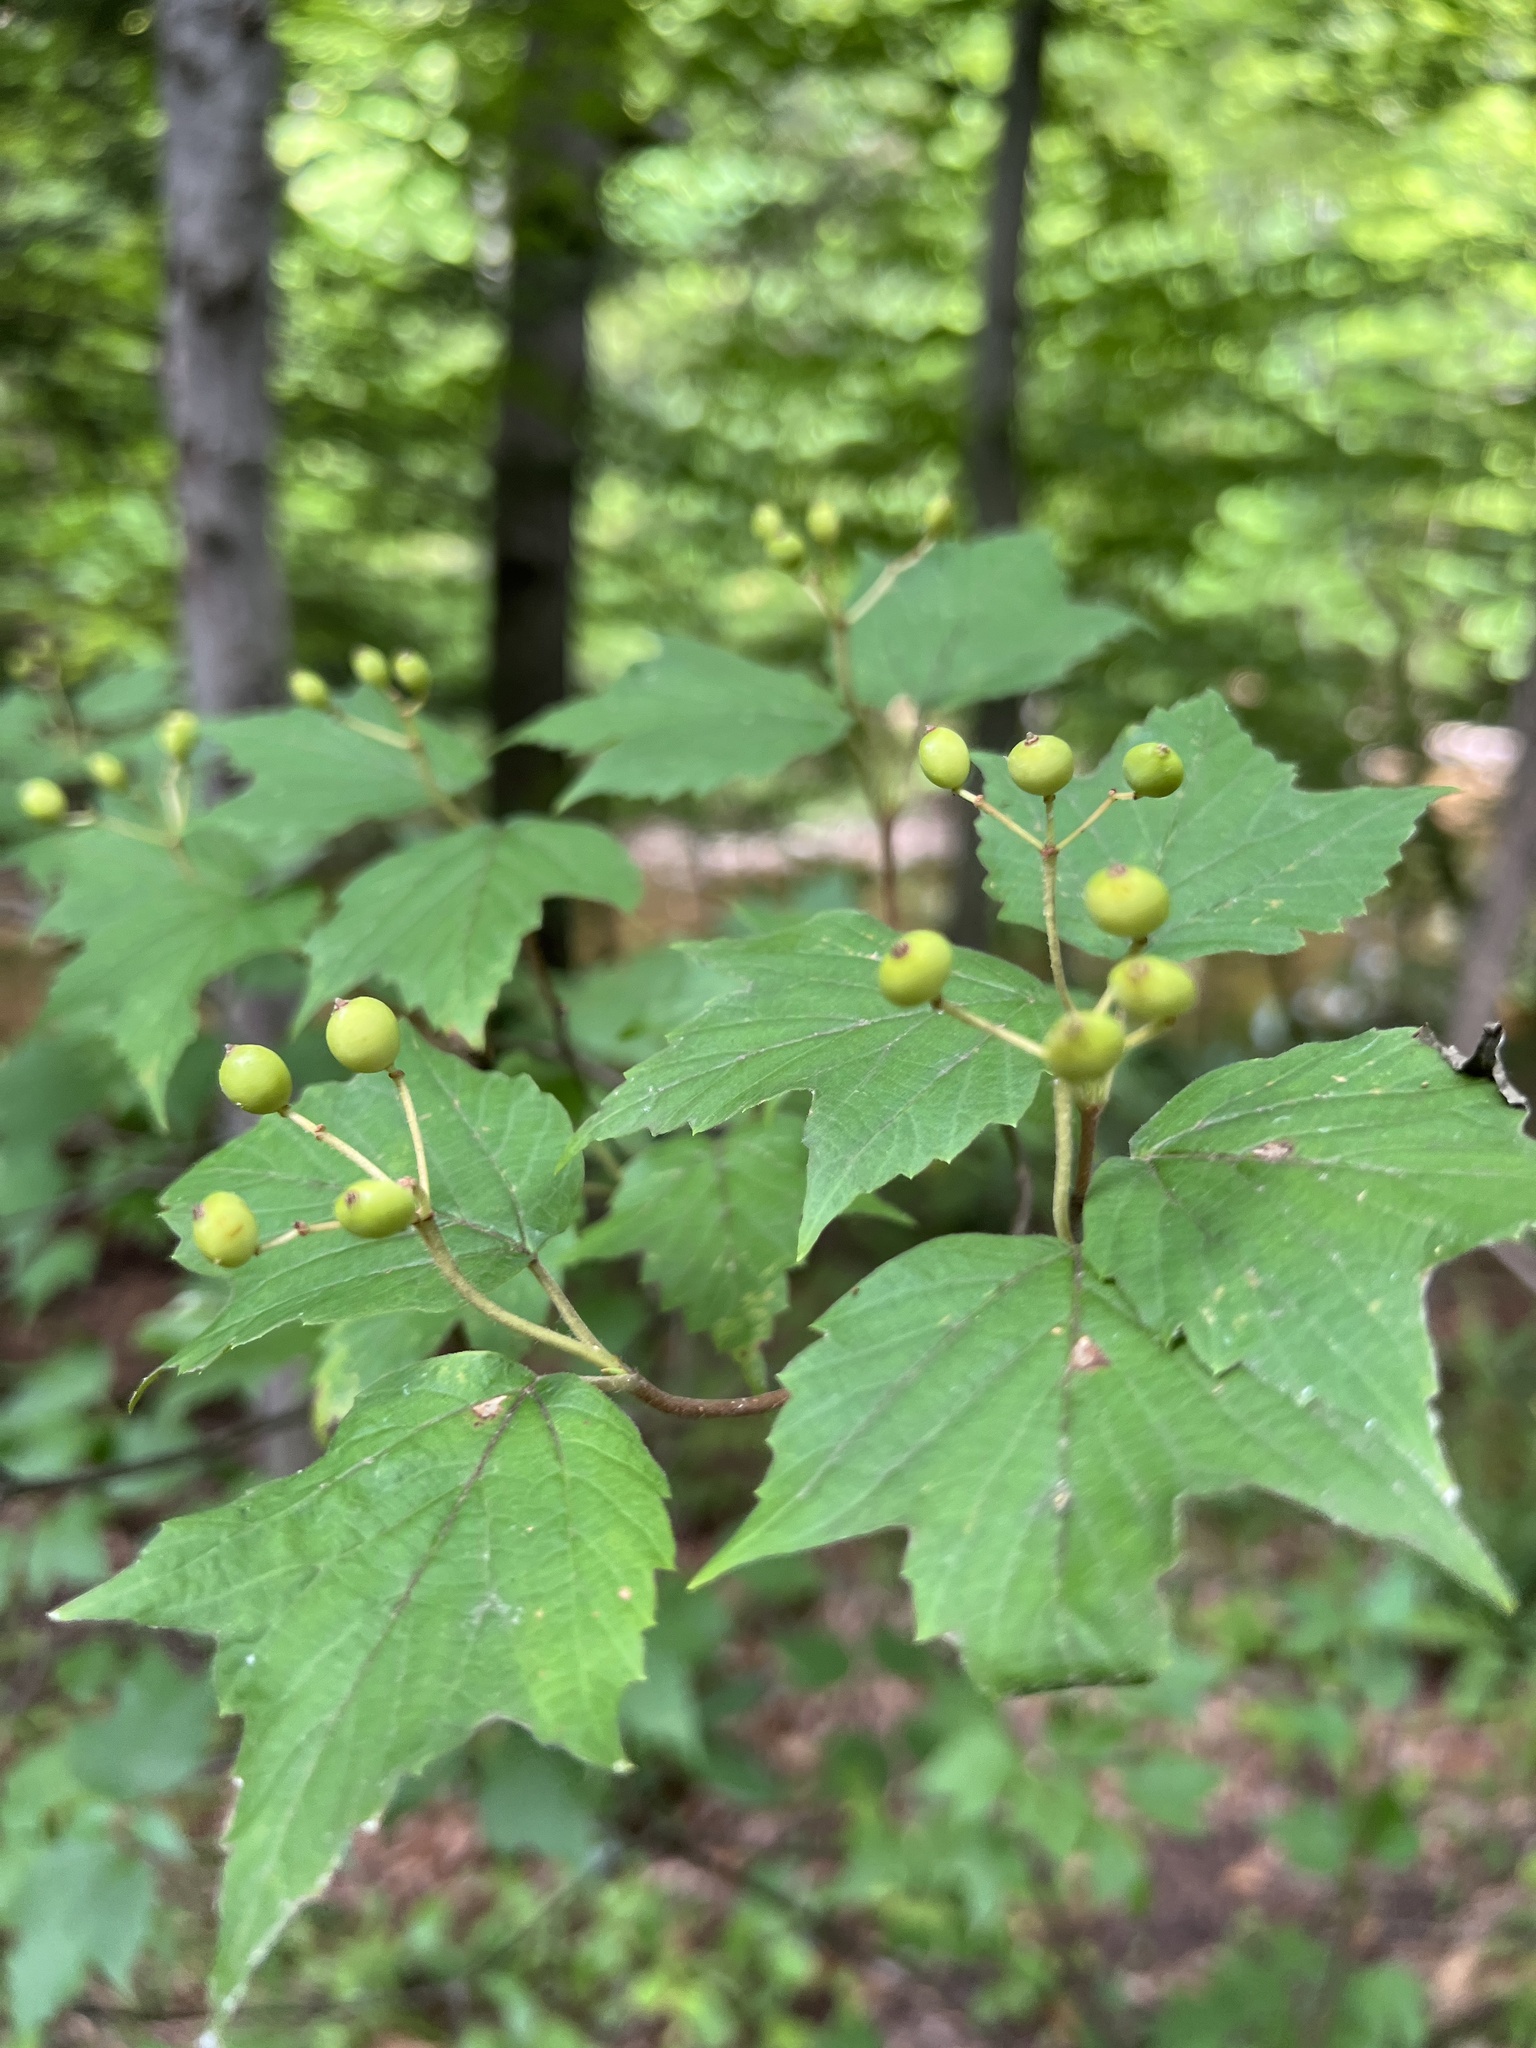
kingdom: Plantae
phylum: Tracheophyta
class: Magnoliopsida
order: Dipsacales
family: Viburnaceae
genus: Viburnum
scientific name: Viburnum acerifolium
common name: Dockmackie
